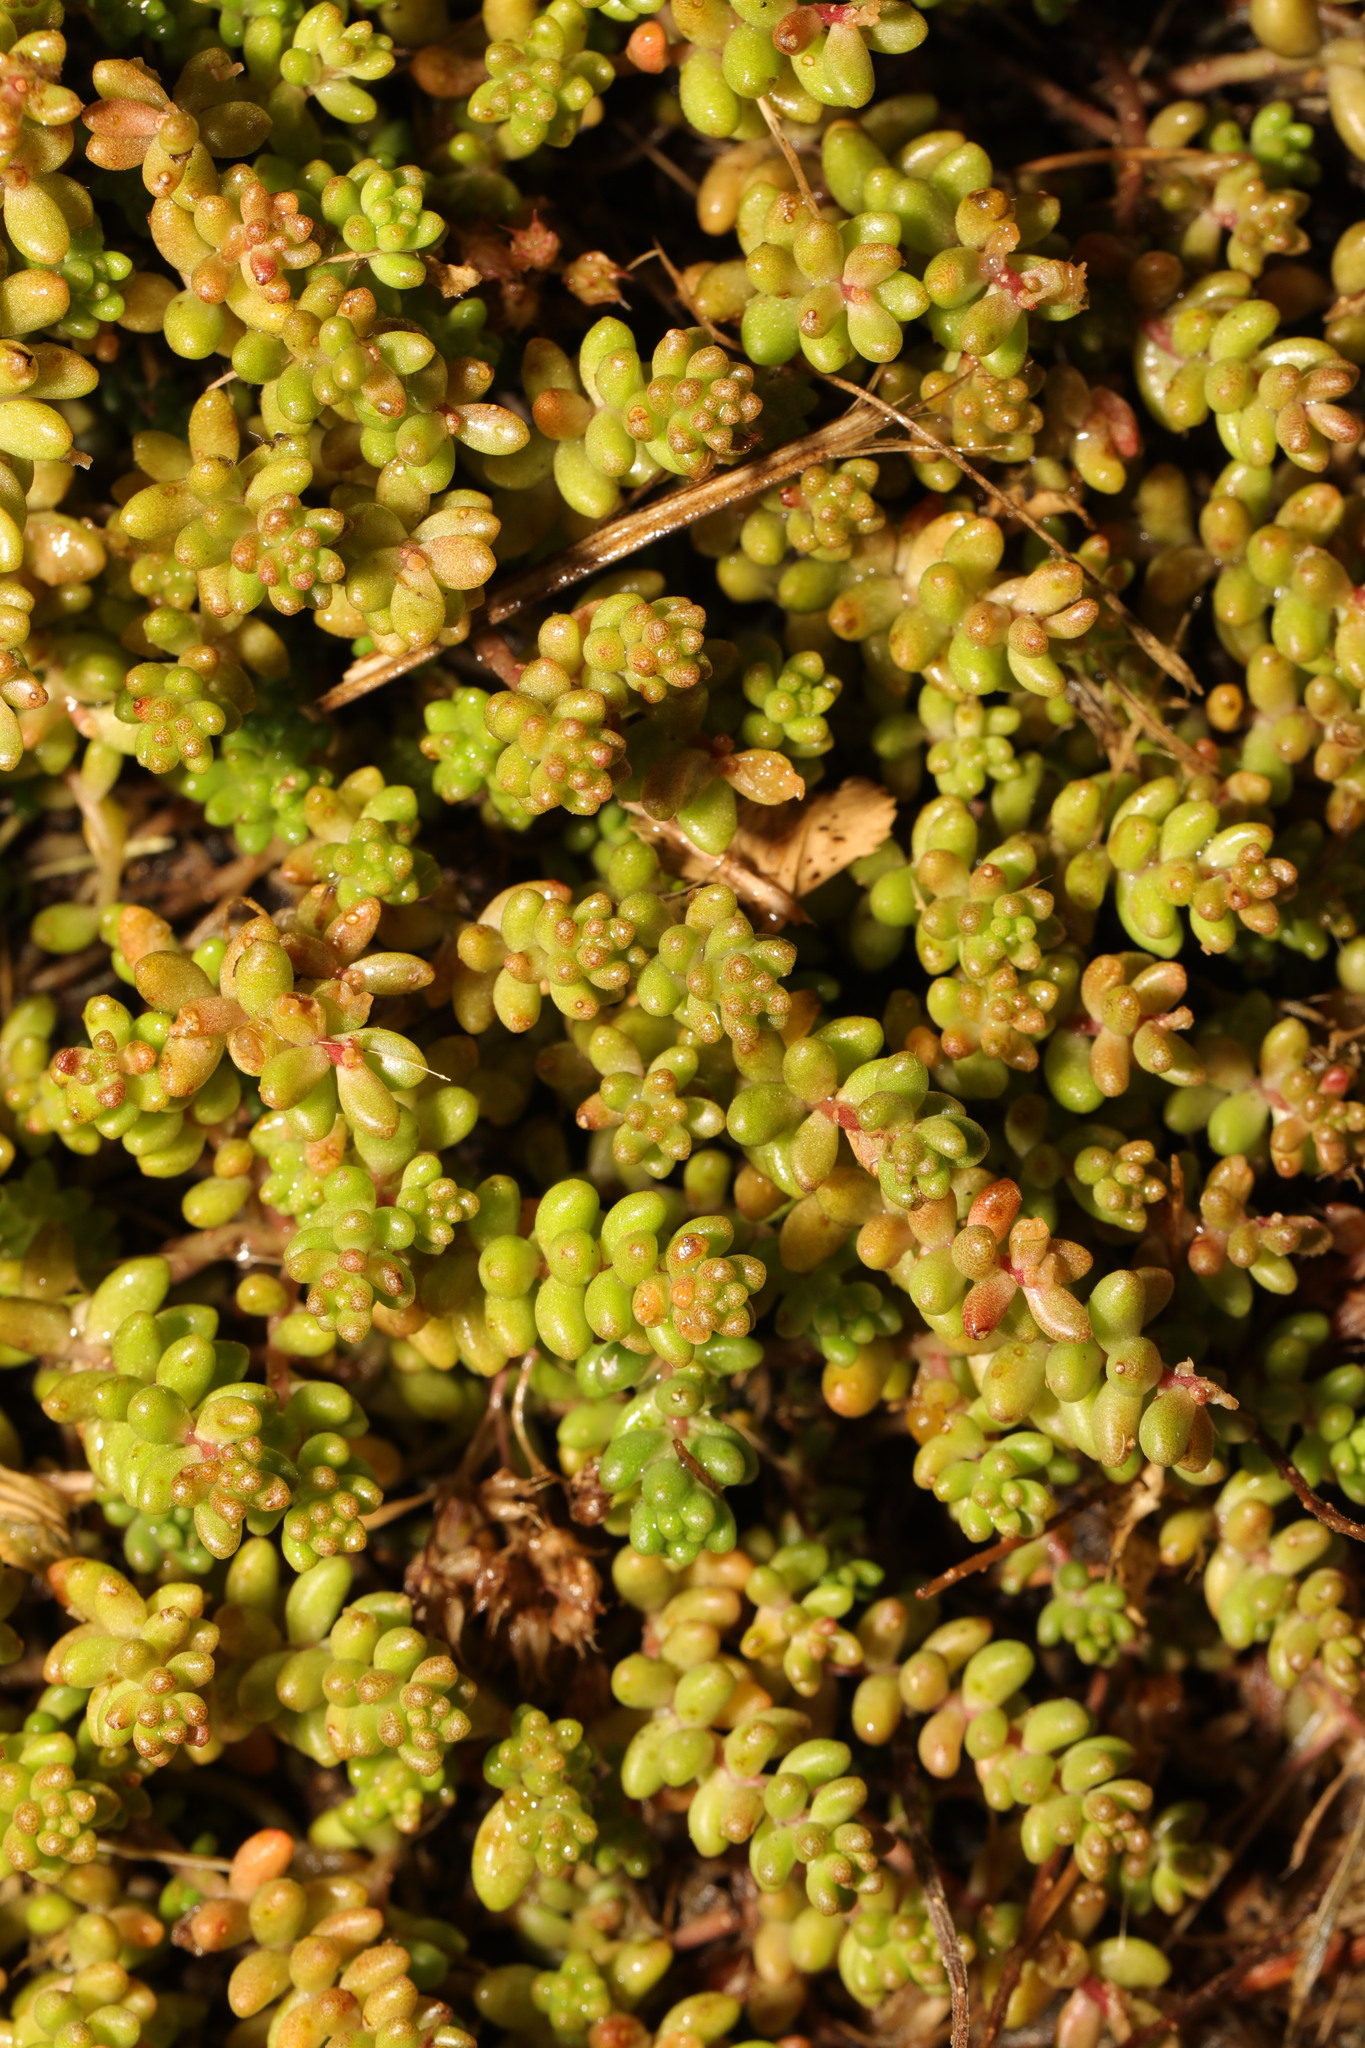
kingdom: Plantae
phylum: Tracheophyta
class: Magnoliopsida
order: Saxifragales
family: Crassulaceae
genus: Sedum
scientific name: Sedum album
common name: White stonecrop
